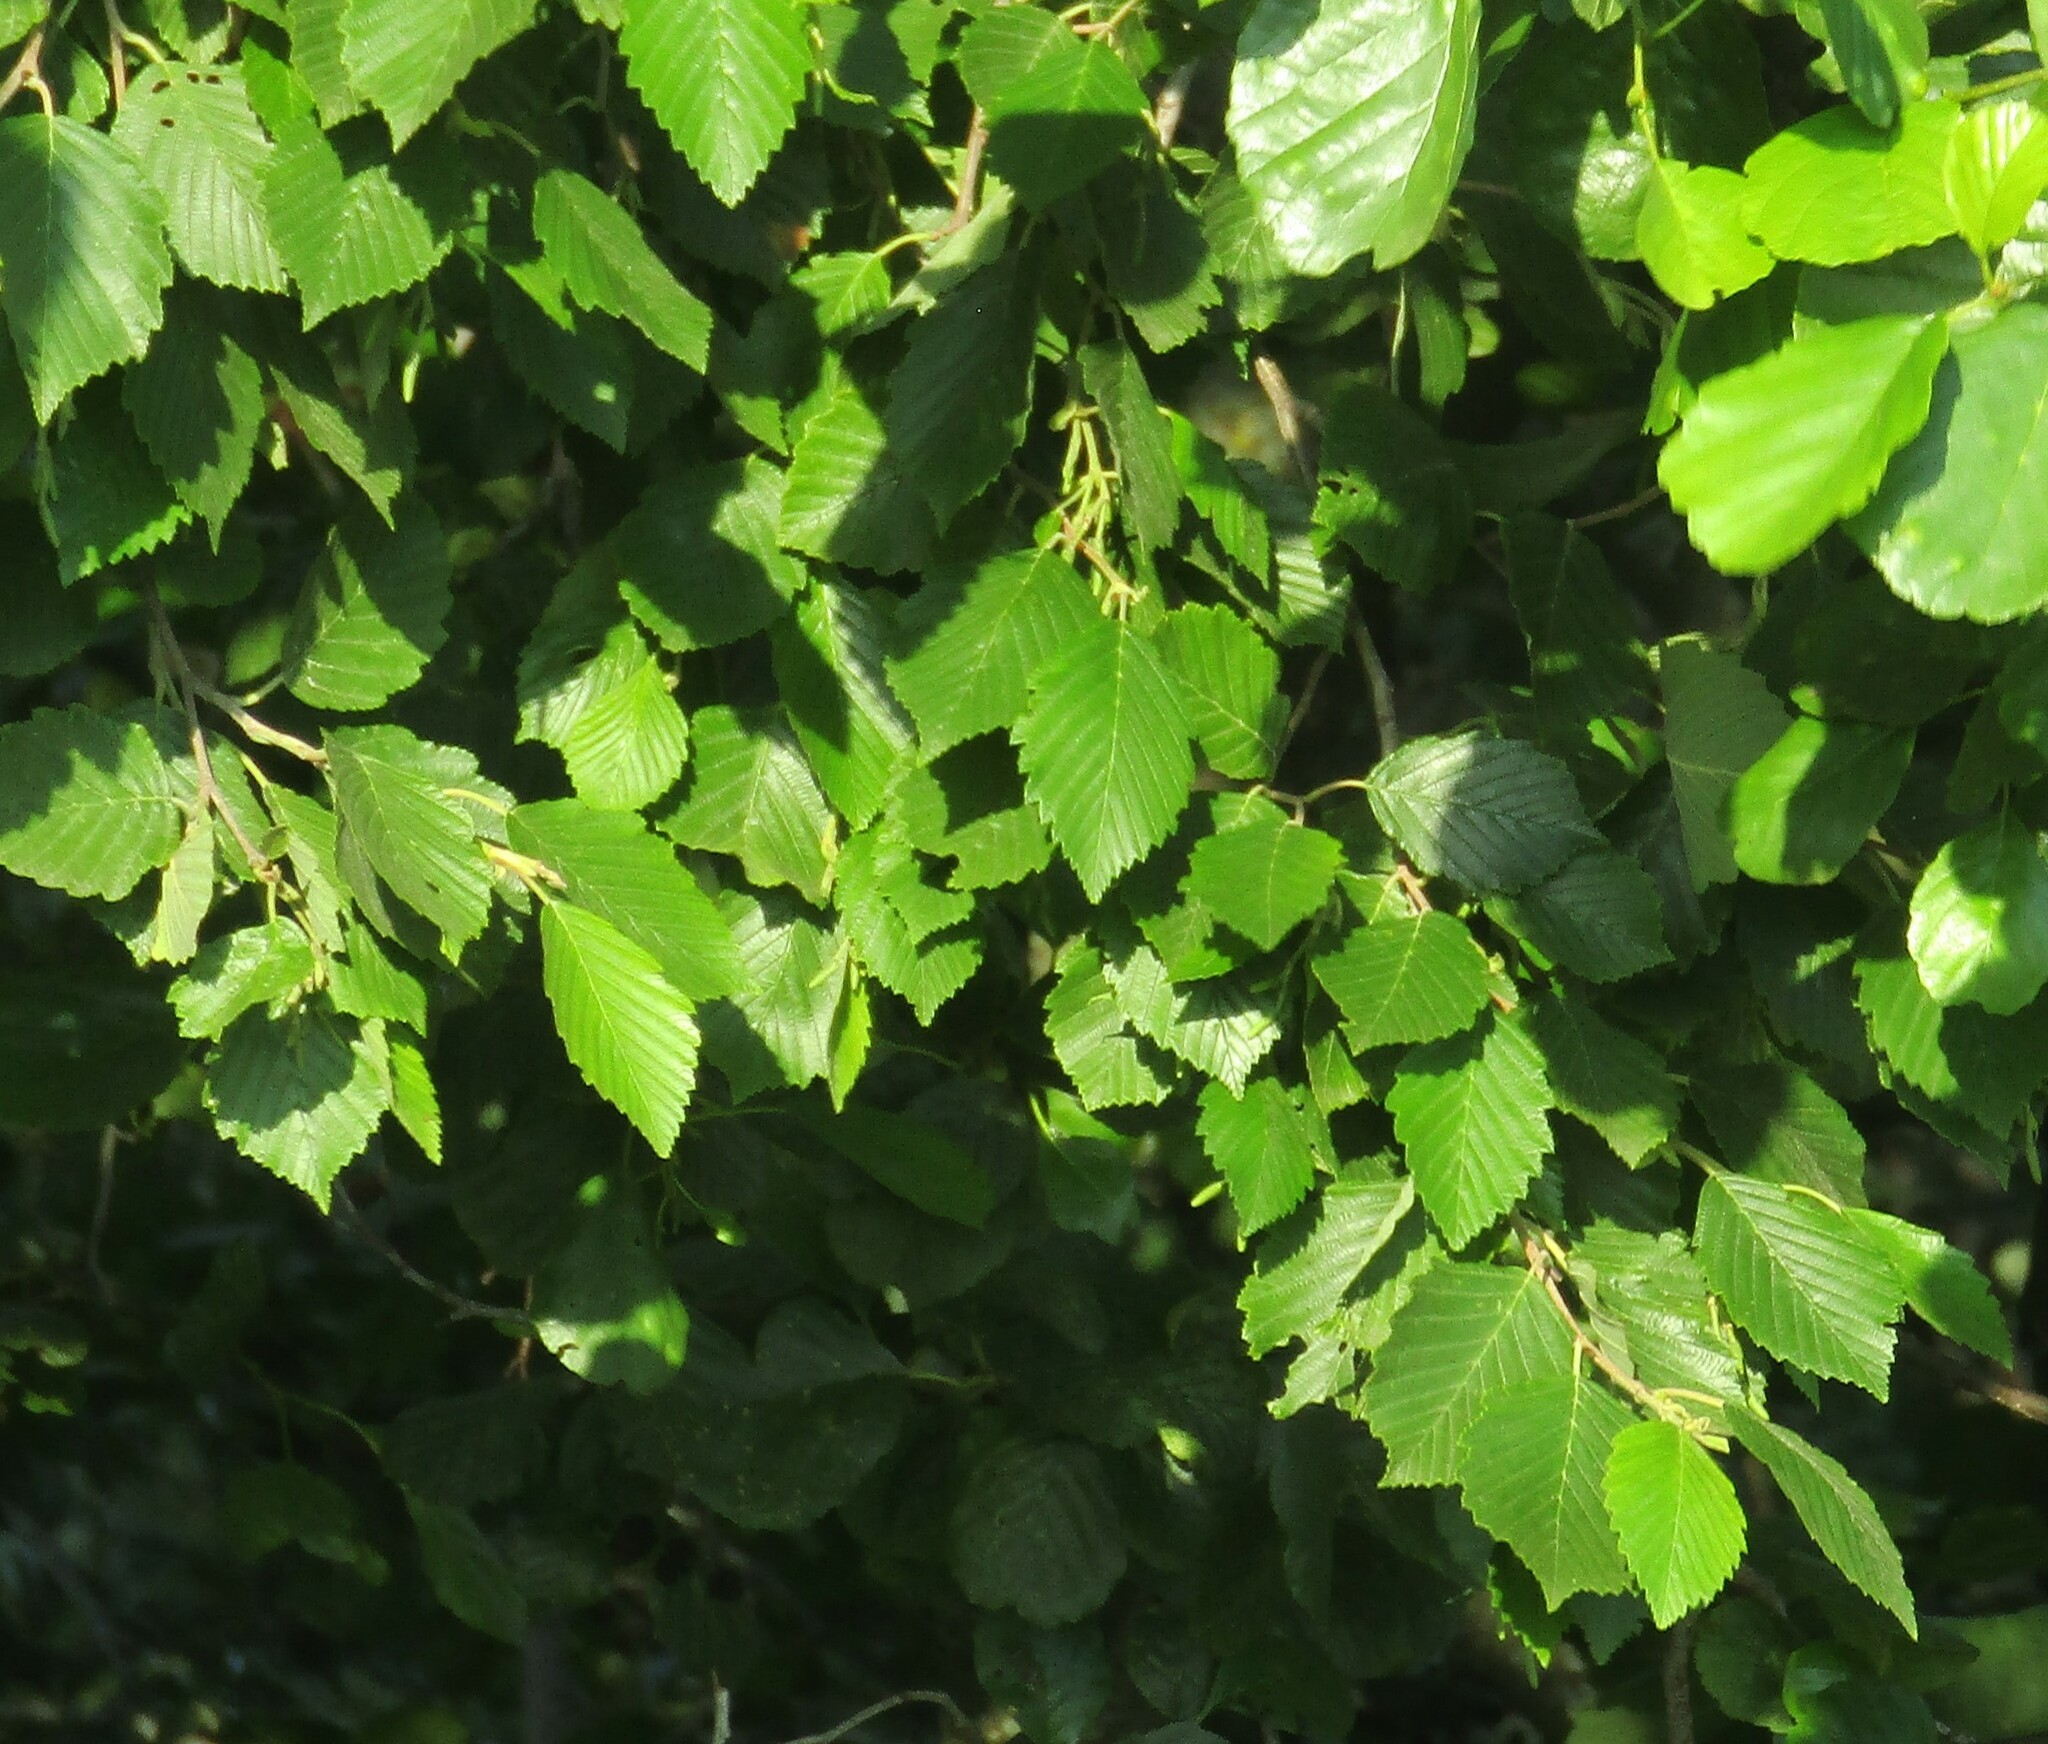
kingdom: Plantae
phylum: Tracheophyta
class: Magnoliopsida
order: Fagales
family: Betulaceae
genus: Alnus
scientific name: Alnus incana
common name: Grey alder
